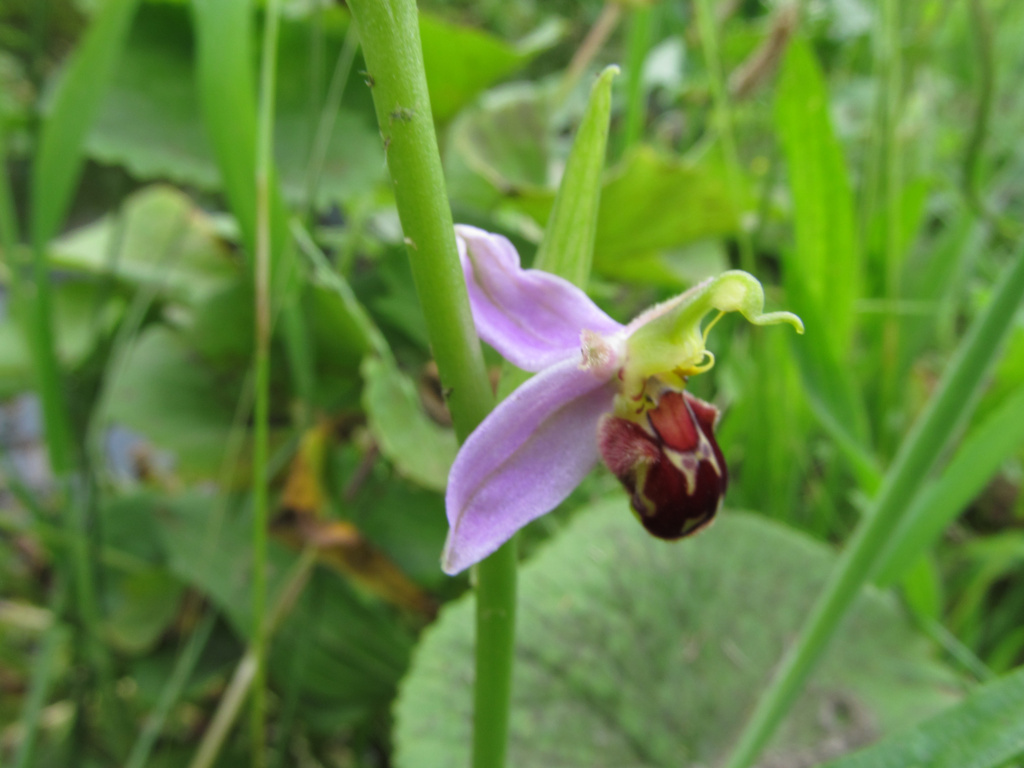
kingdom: Plantae
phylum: Tracheophyta
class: Liliopsida
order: Asparagales
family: Orchidaceae
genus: Ophrys
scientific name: Ophrys apifera
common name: Bee orchid
